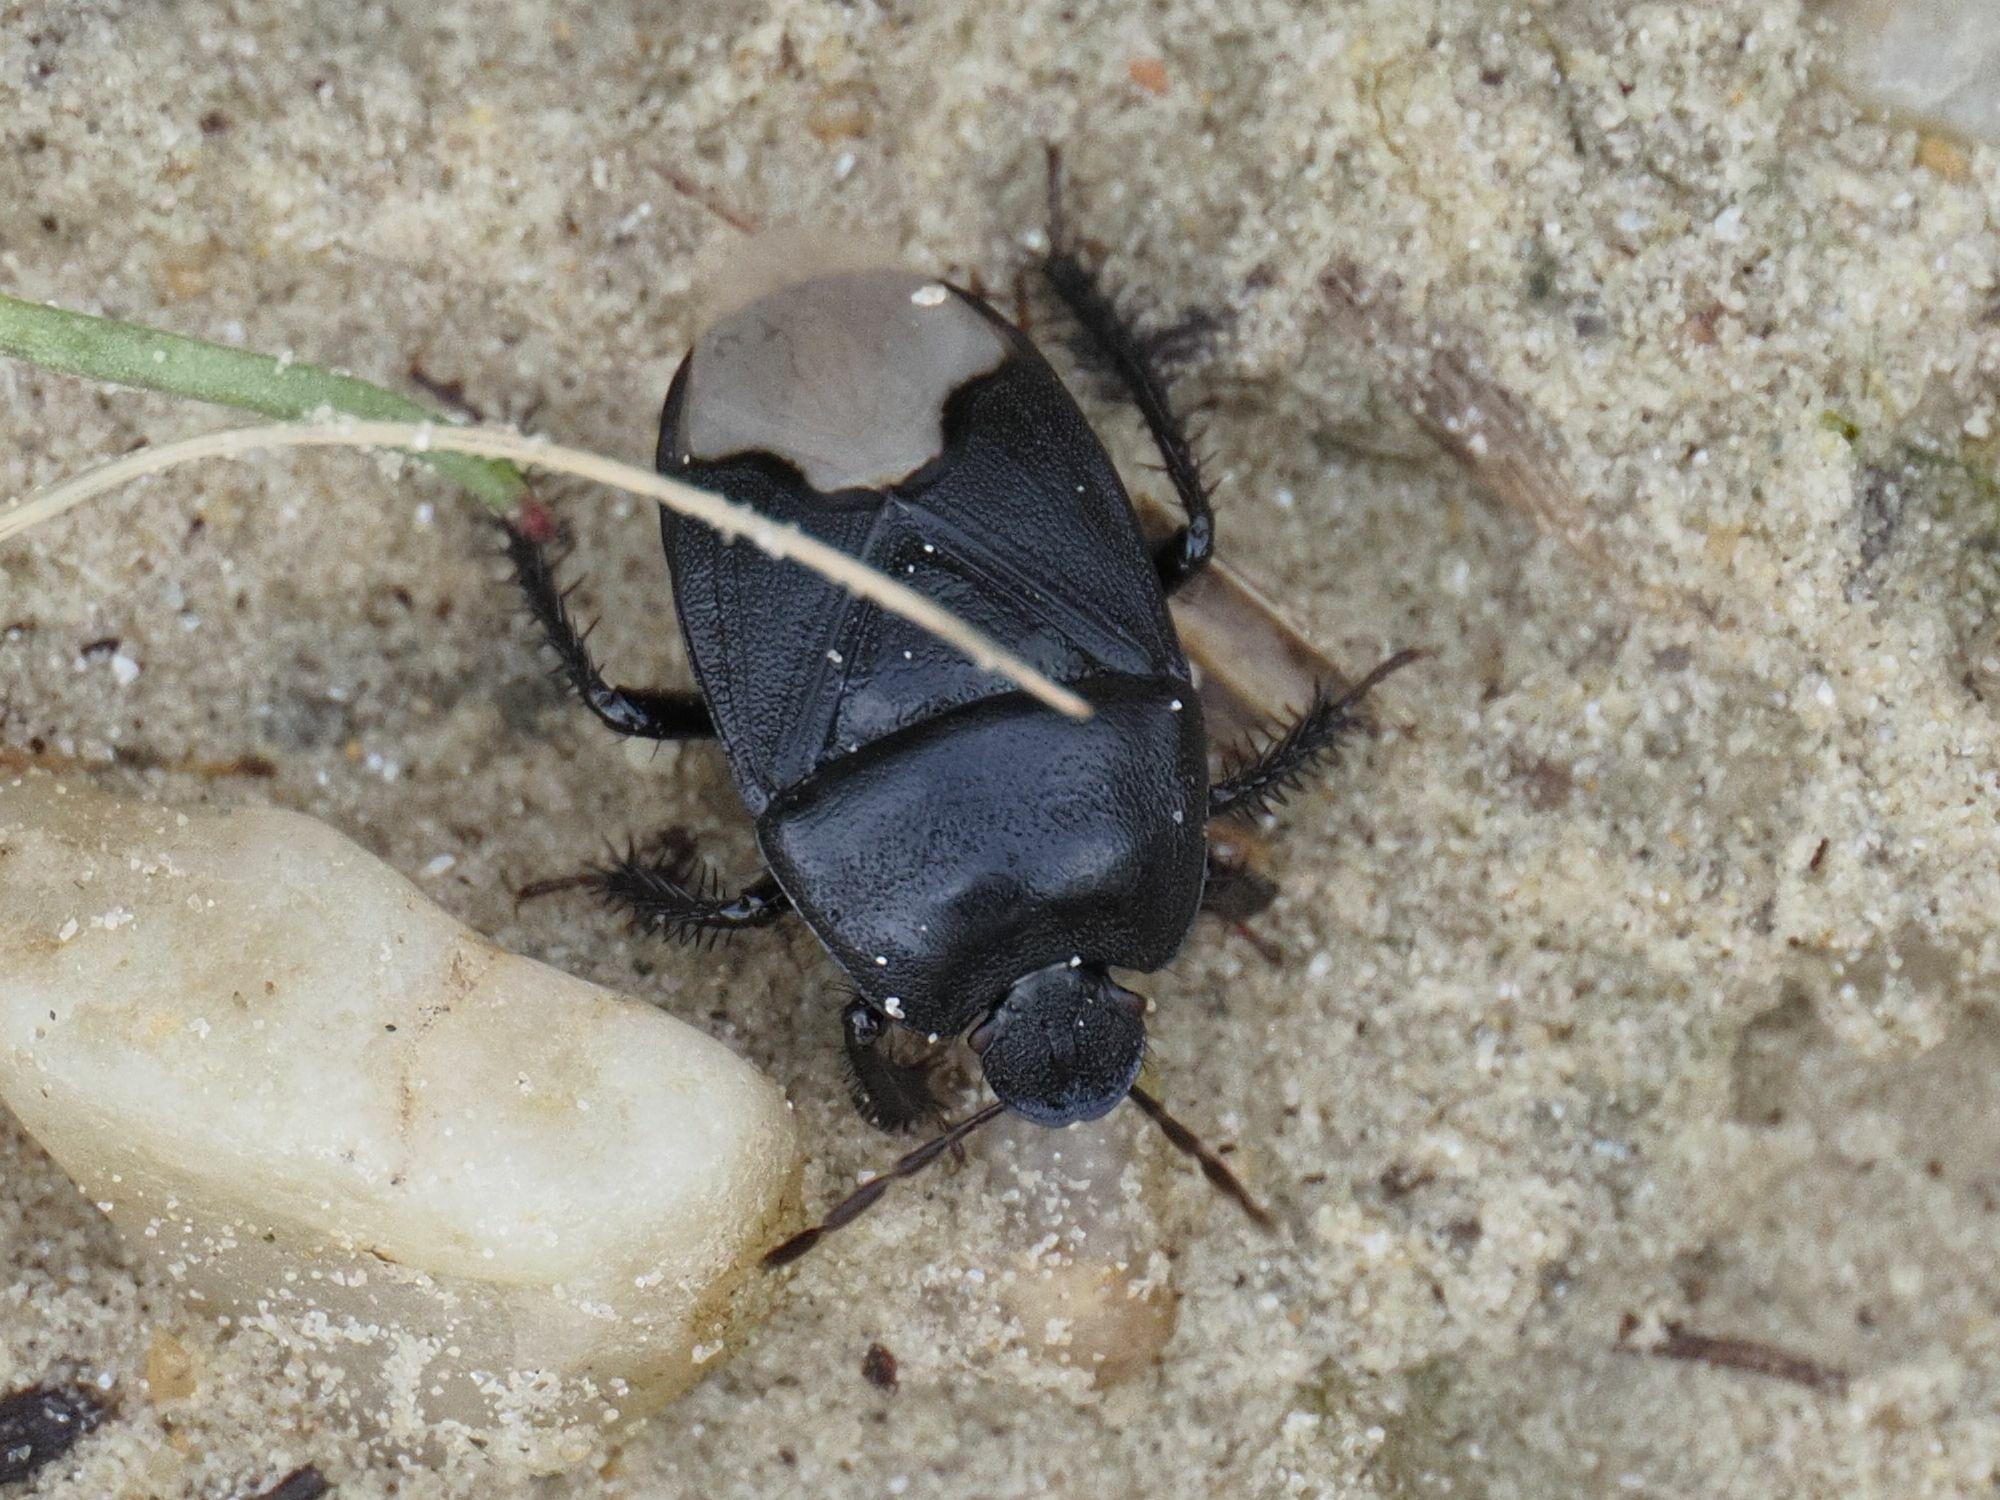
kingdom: Animalia
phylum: Arthropoda
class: Insecta
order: Hemiptera
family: Cydnidae
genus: Cydnus
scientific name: Cydnus aterrimus
